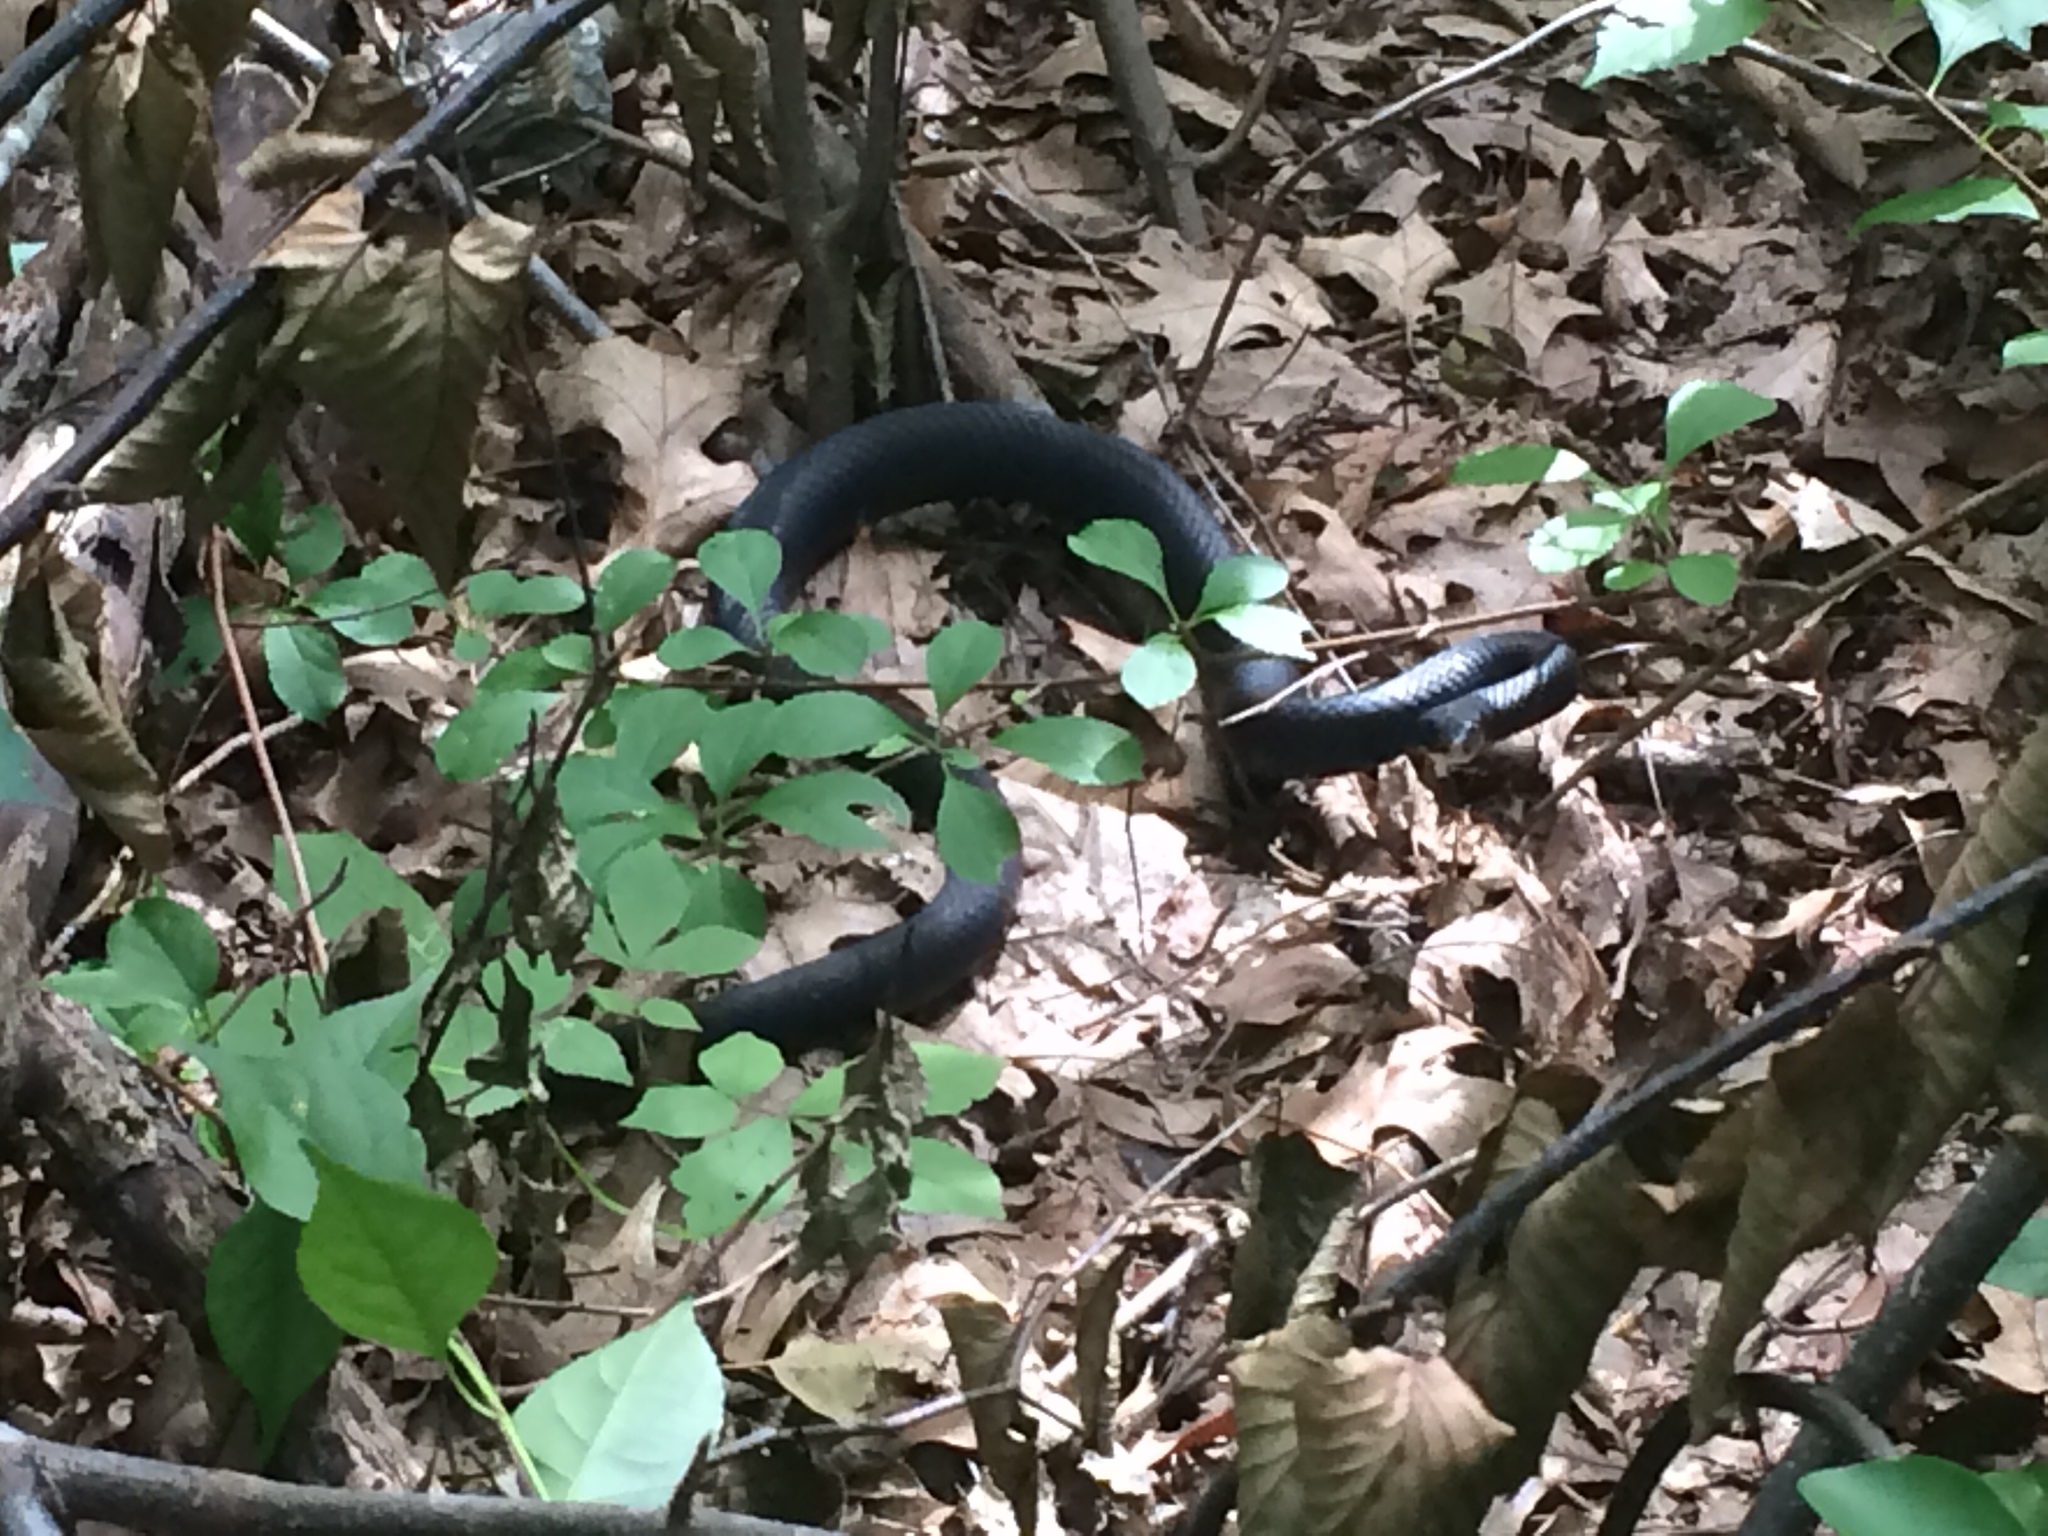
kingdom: Animalia
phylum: Chordata
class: Squamata
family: Colubridae
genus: Coluber
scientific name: Coluber constrictor
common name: Eastern racer
